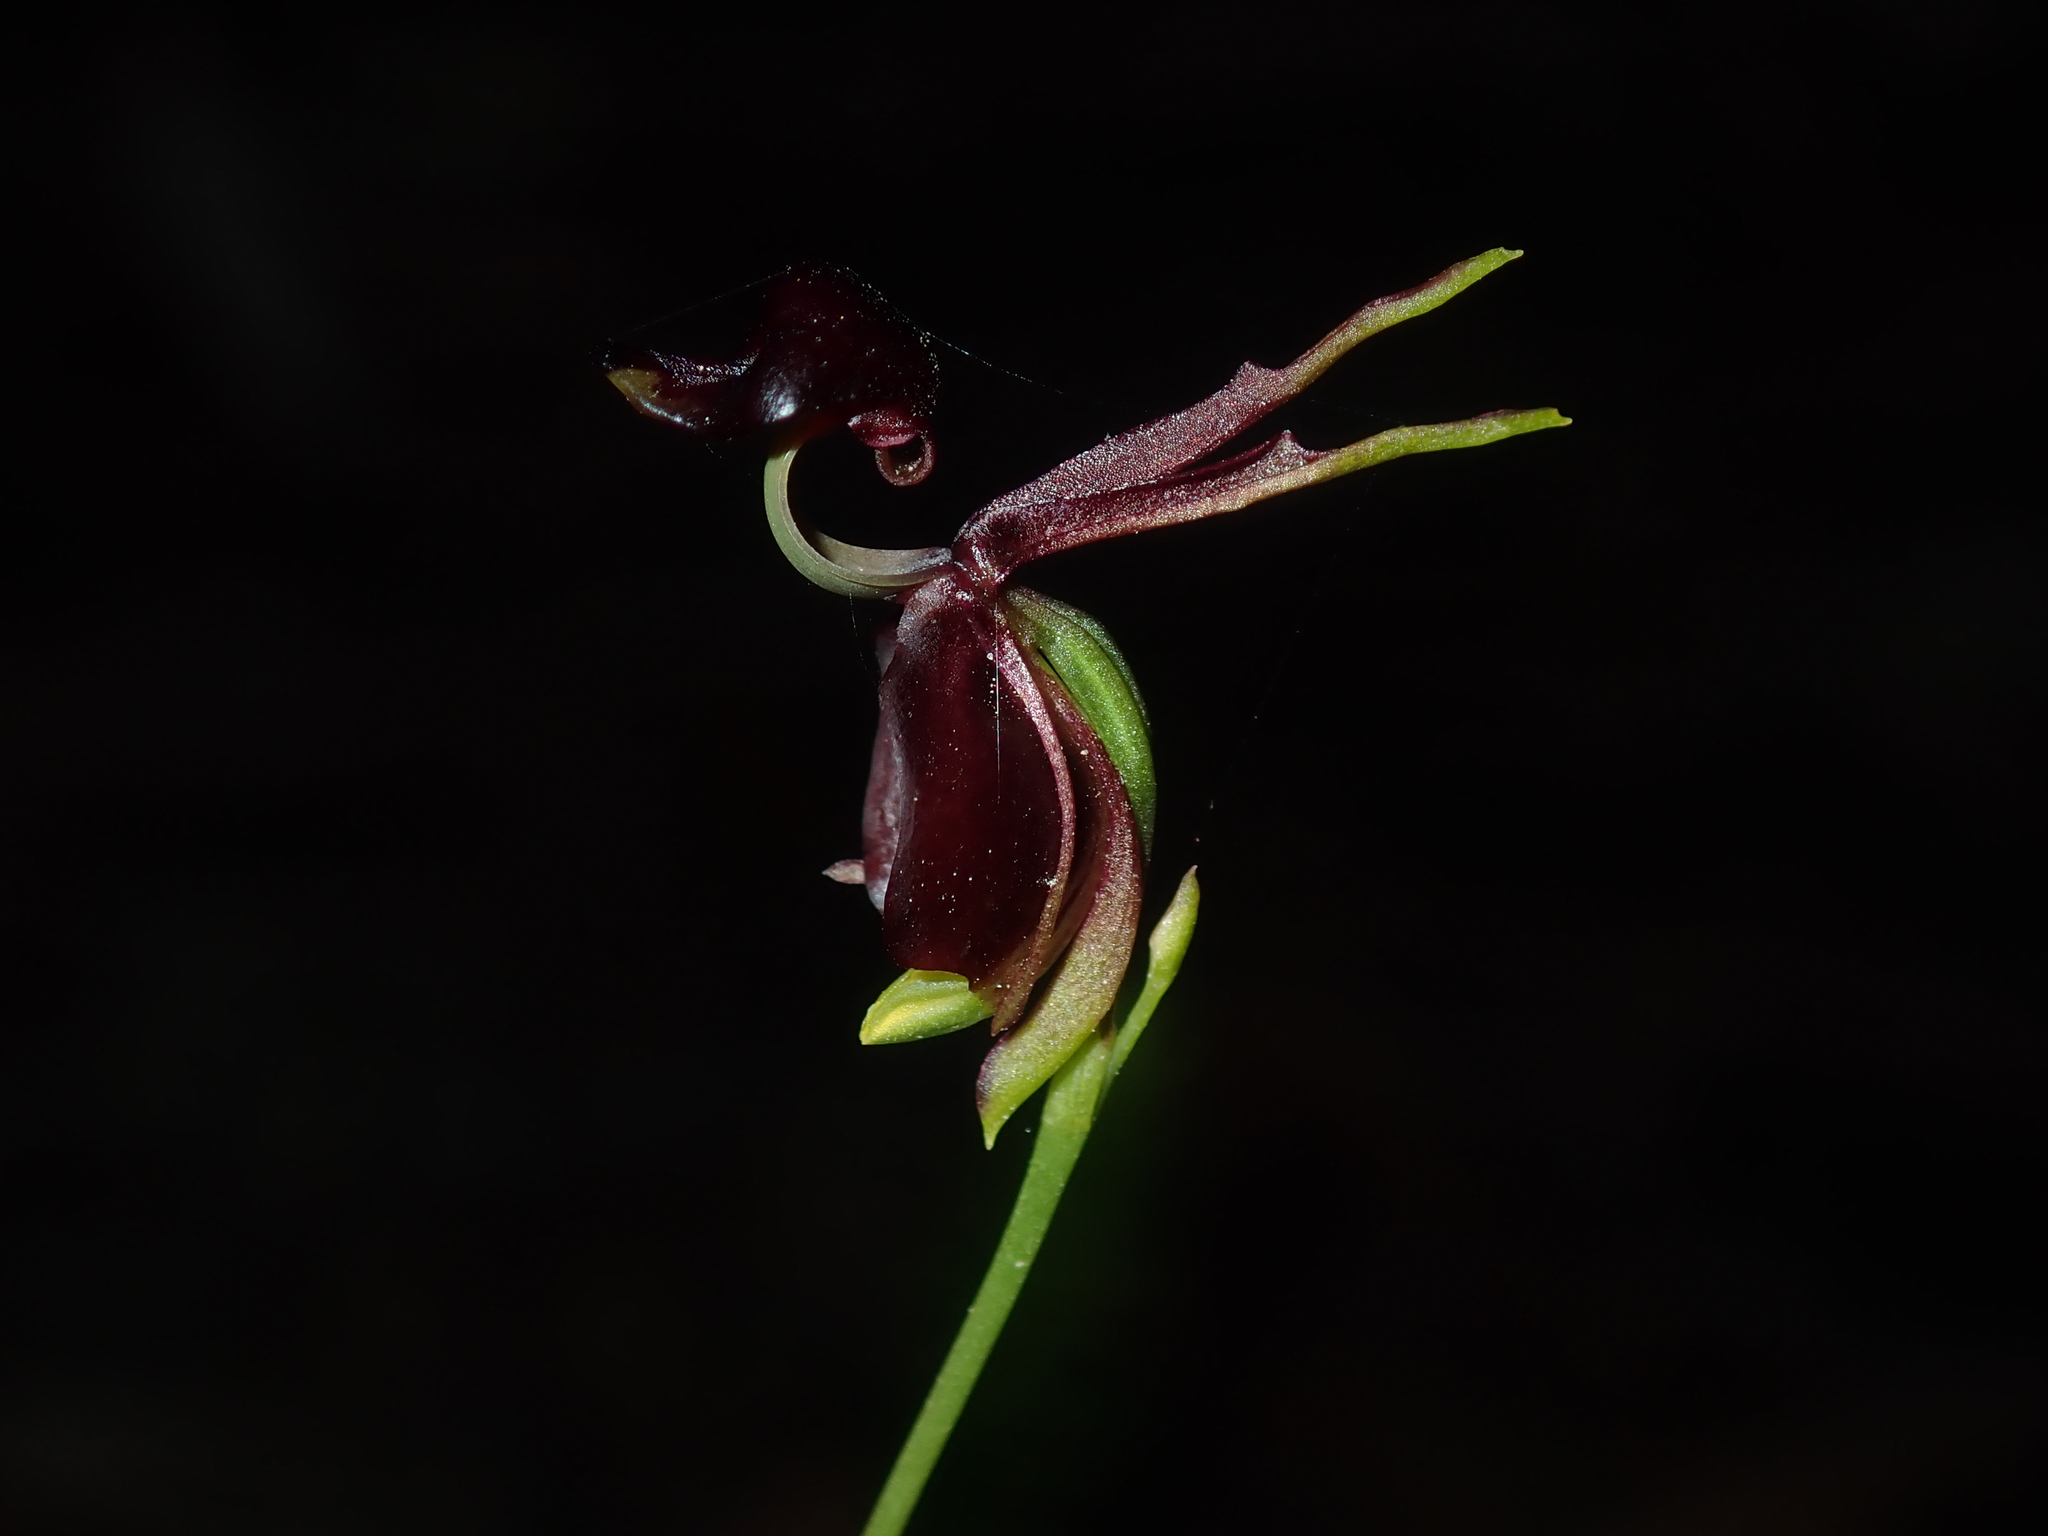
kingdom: Plantae
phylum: Tracheophyta
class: Liliopsida
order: Asparagales
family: Orchidaceae
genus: Caleana
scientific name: Caleana major
